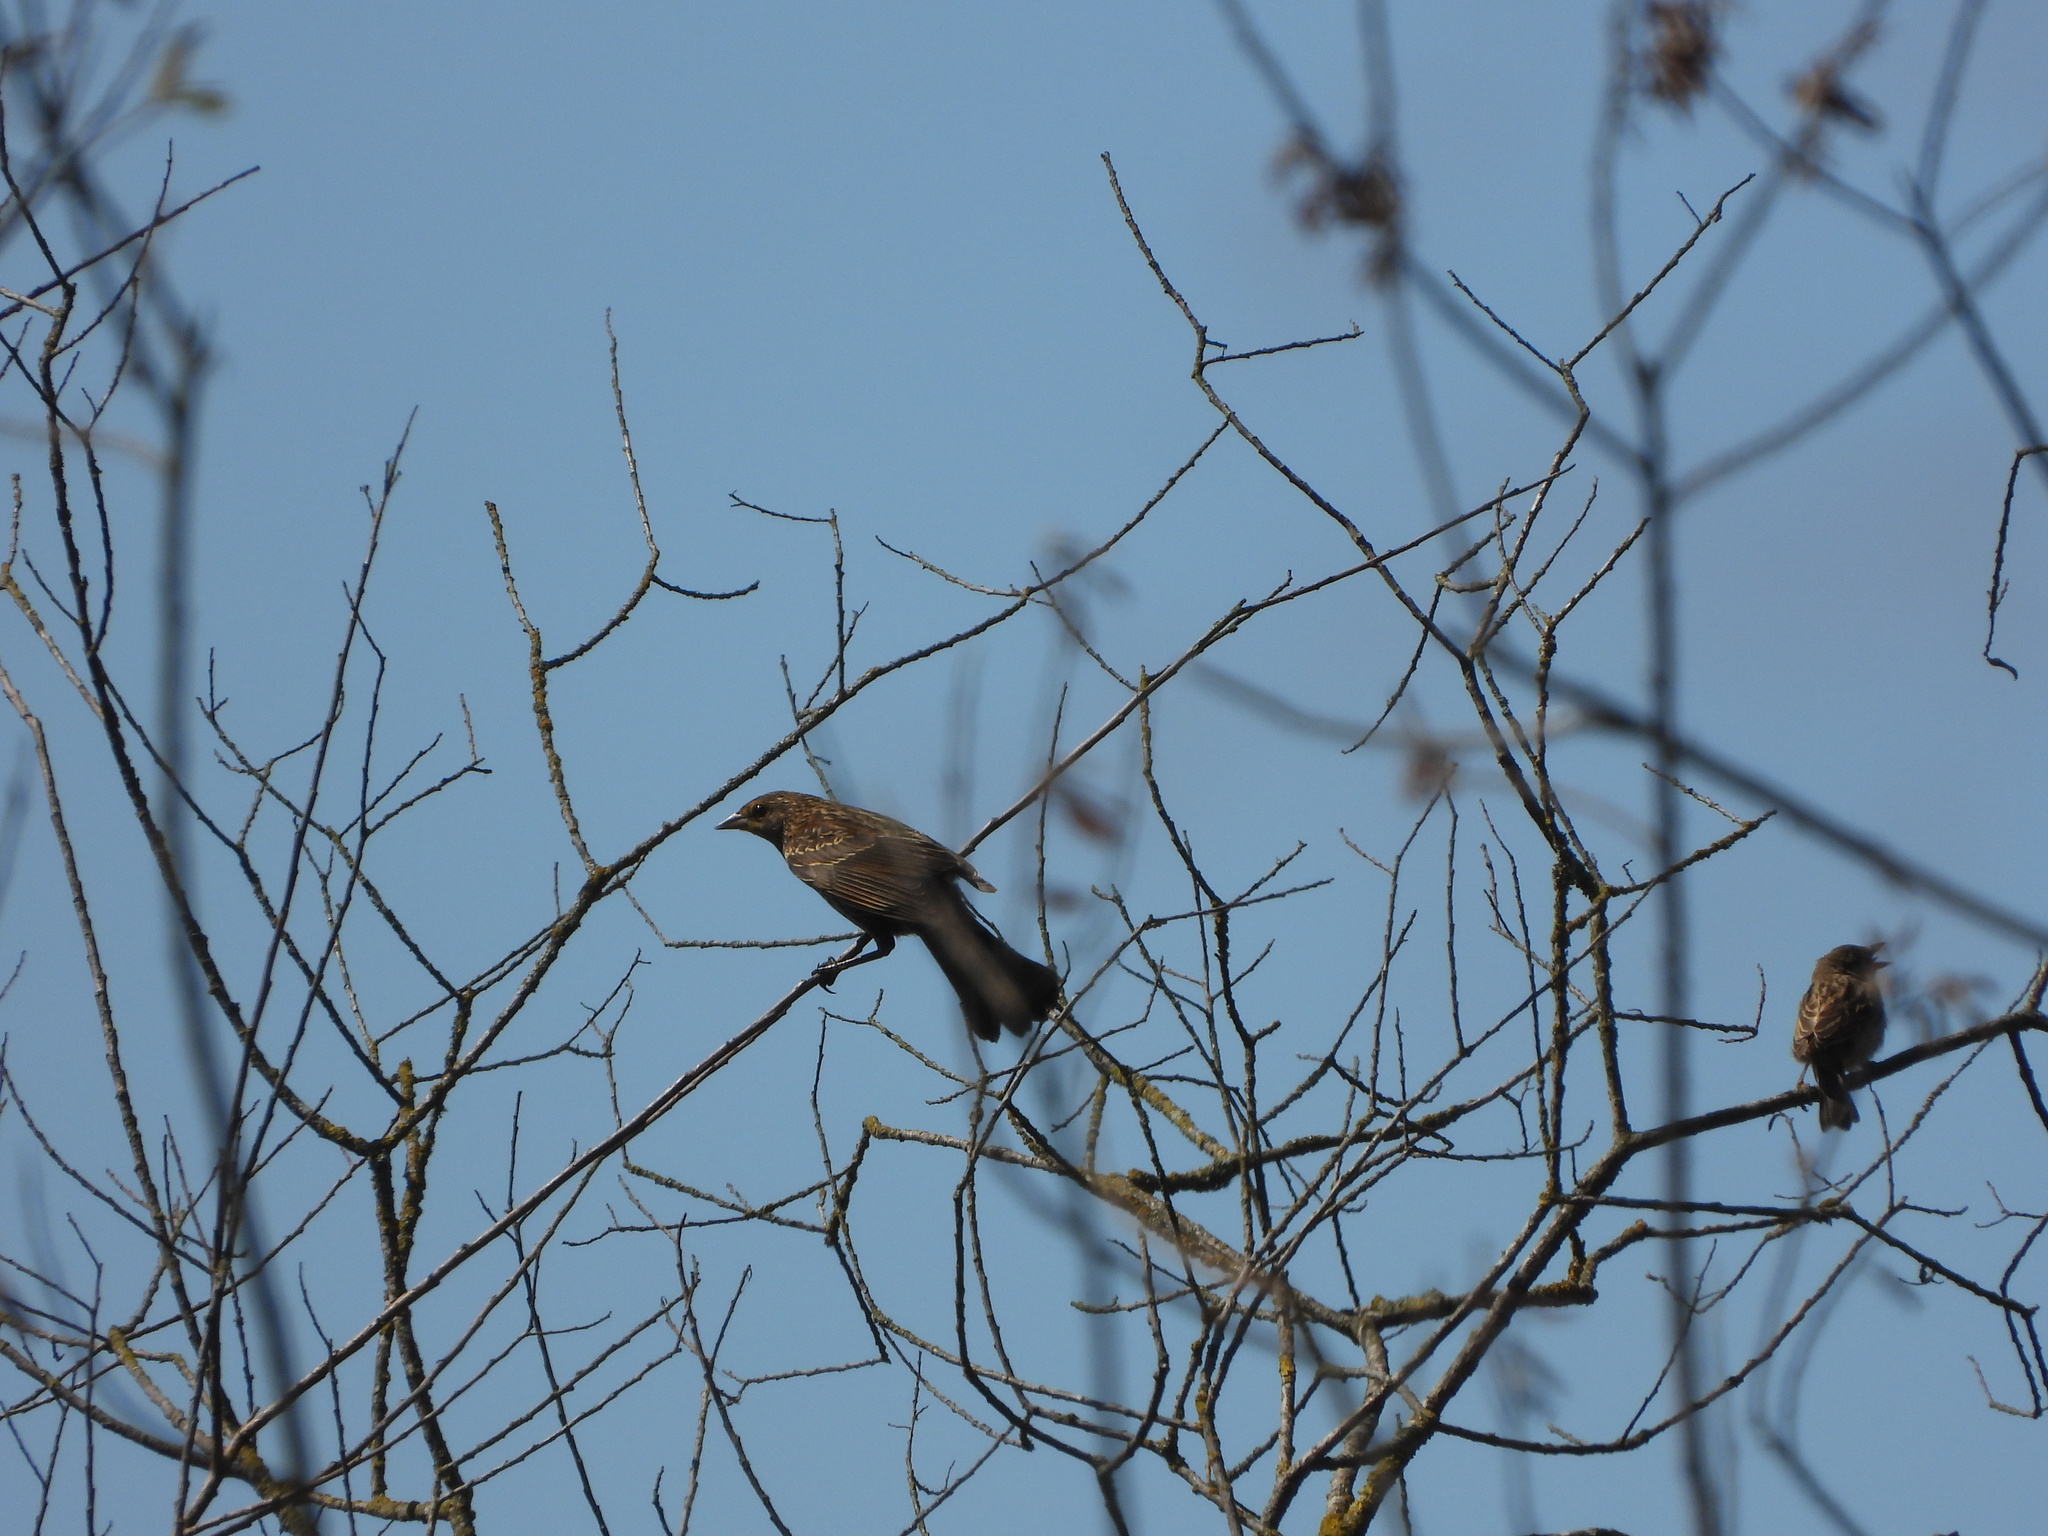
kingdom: Animalia
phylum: Chordata
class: Aves
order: Passeriformes
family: Icteridae
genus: Agelaius
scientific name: Agelaius phoeniceus
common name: Red-winged blackbird
